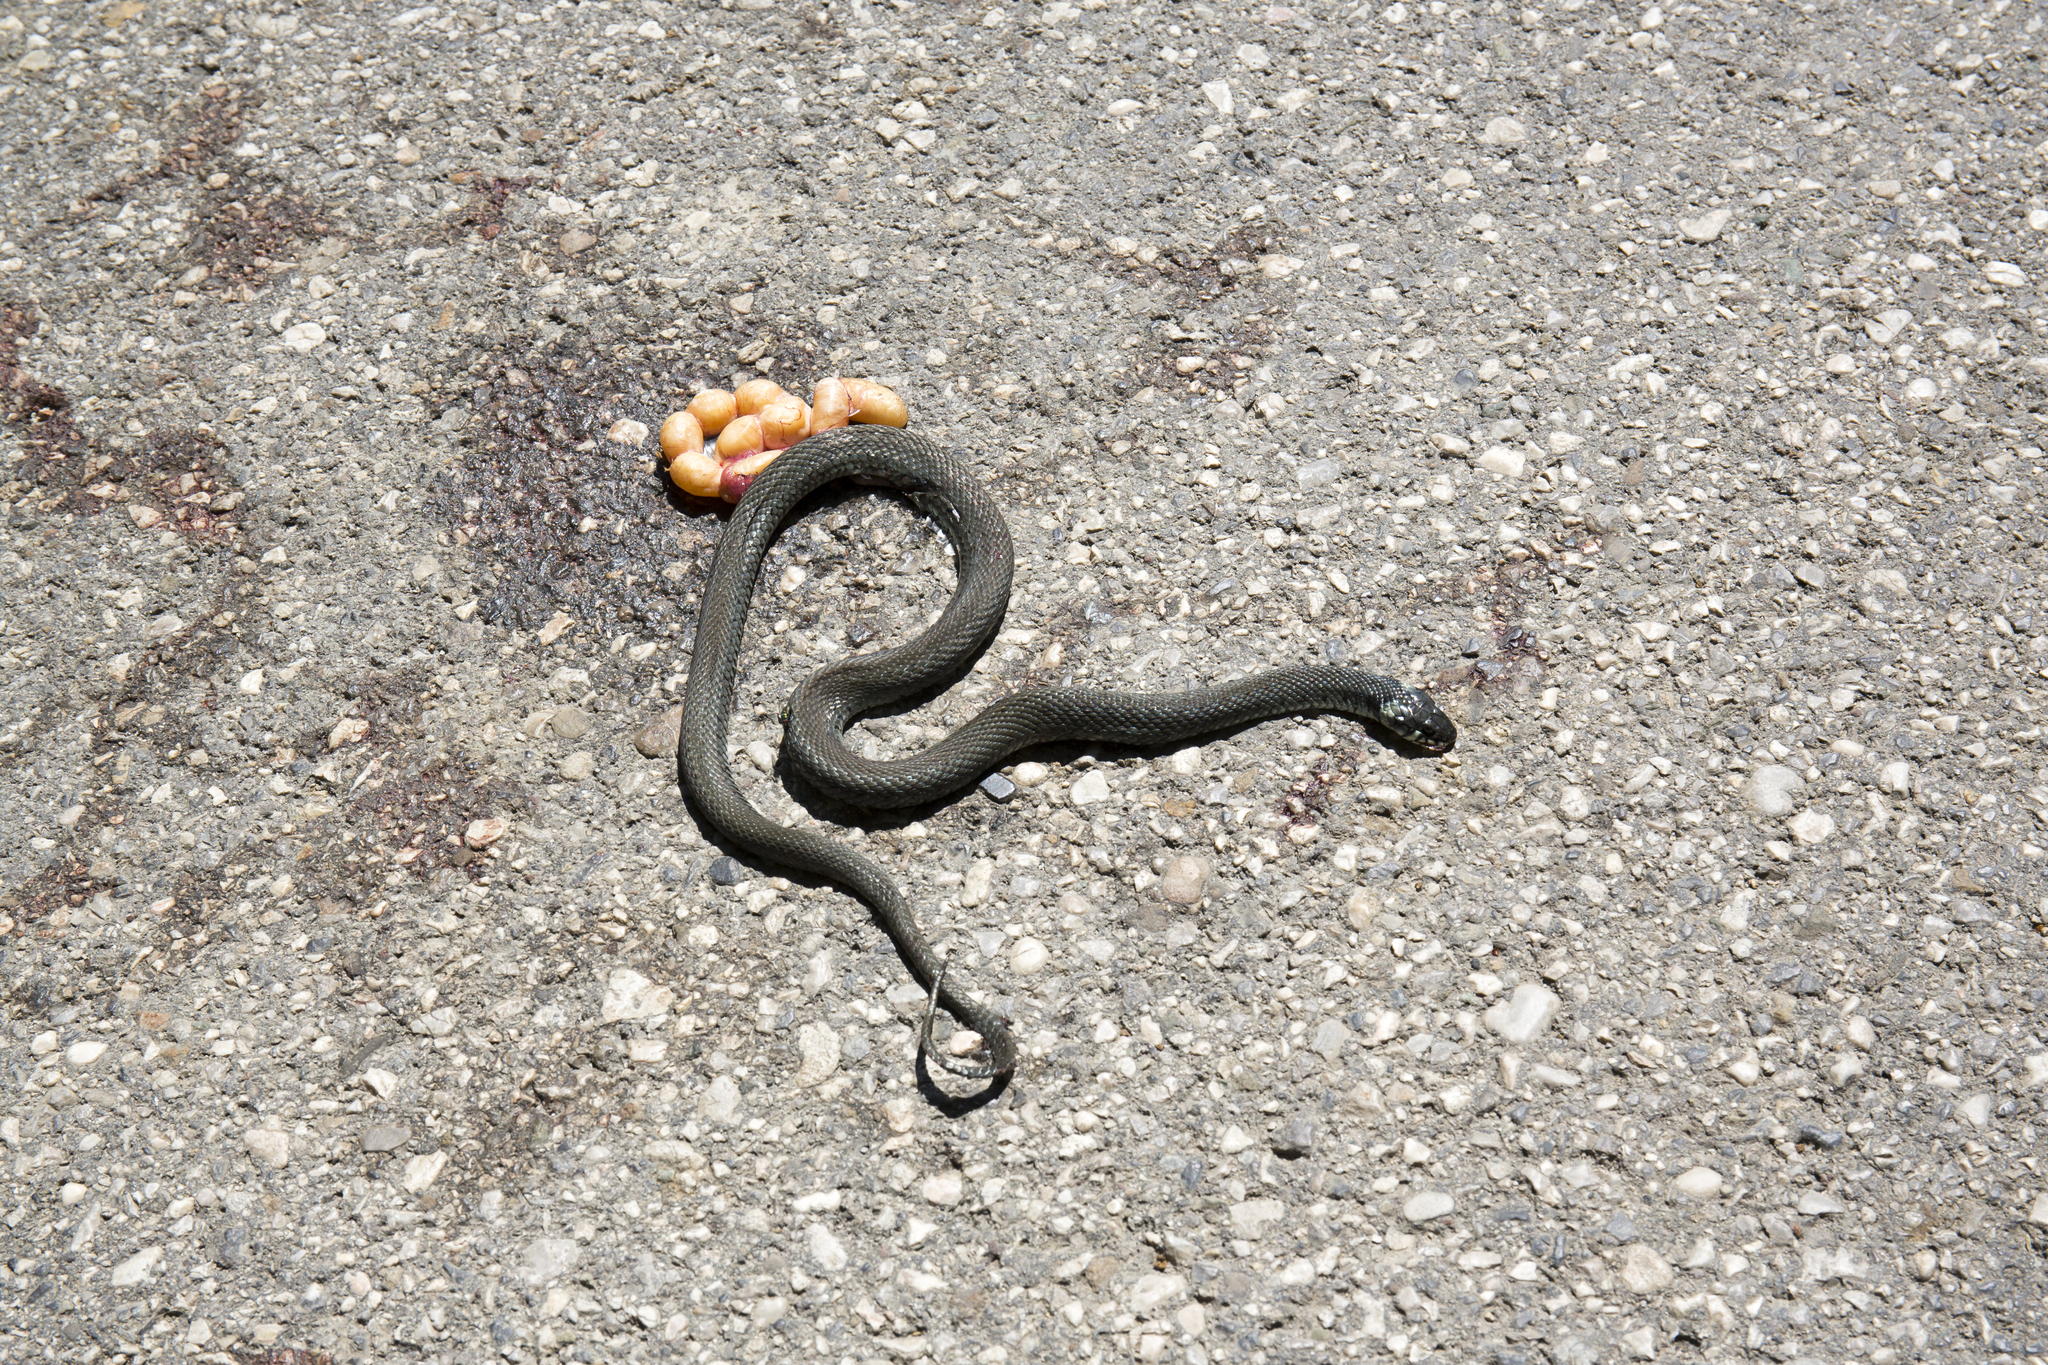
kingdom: Animalia
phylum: Chordata
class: Squamata
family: Colubridae
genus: Natrix
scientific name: Natrix natrix
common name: Grass snake
